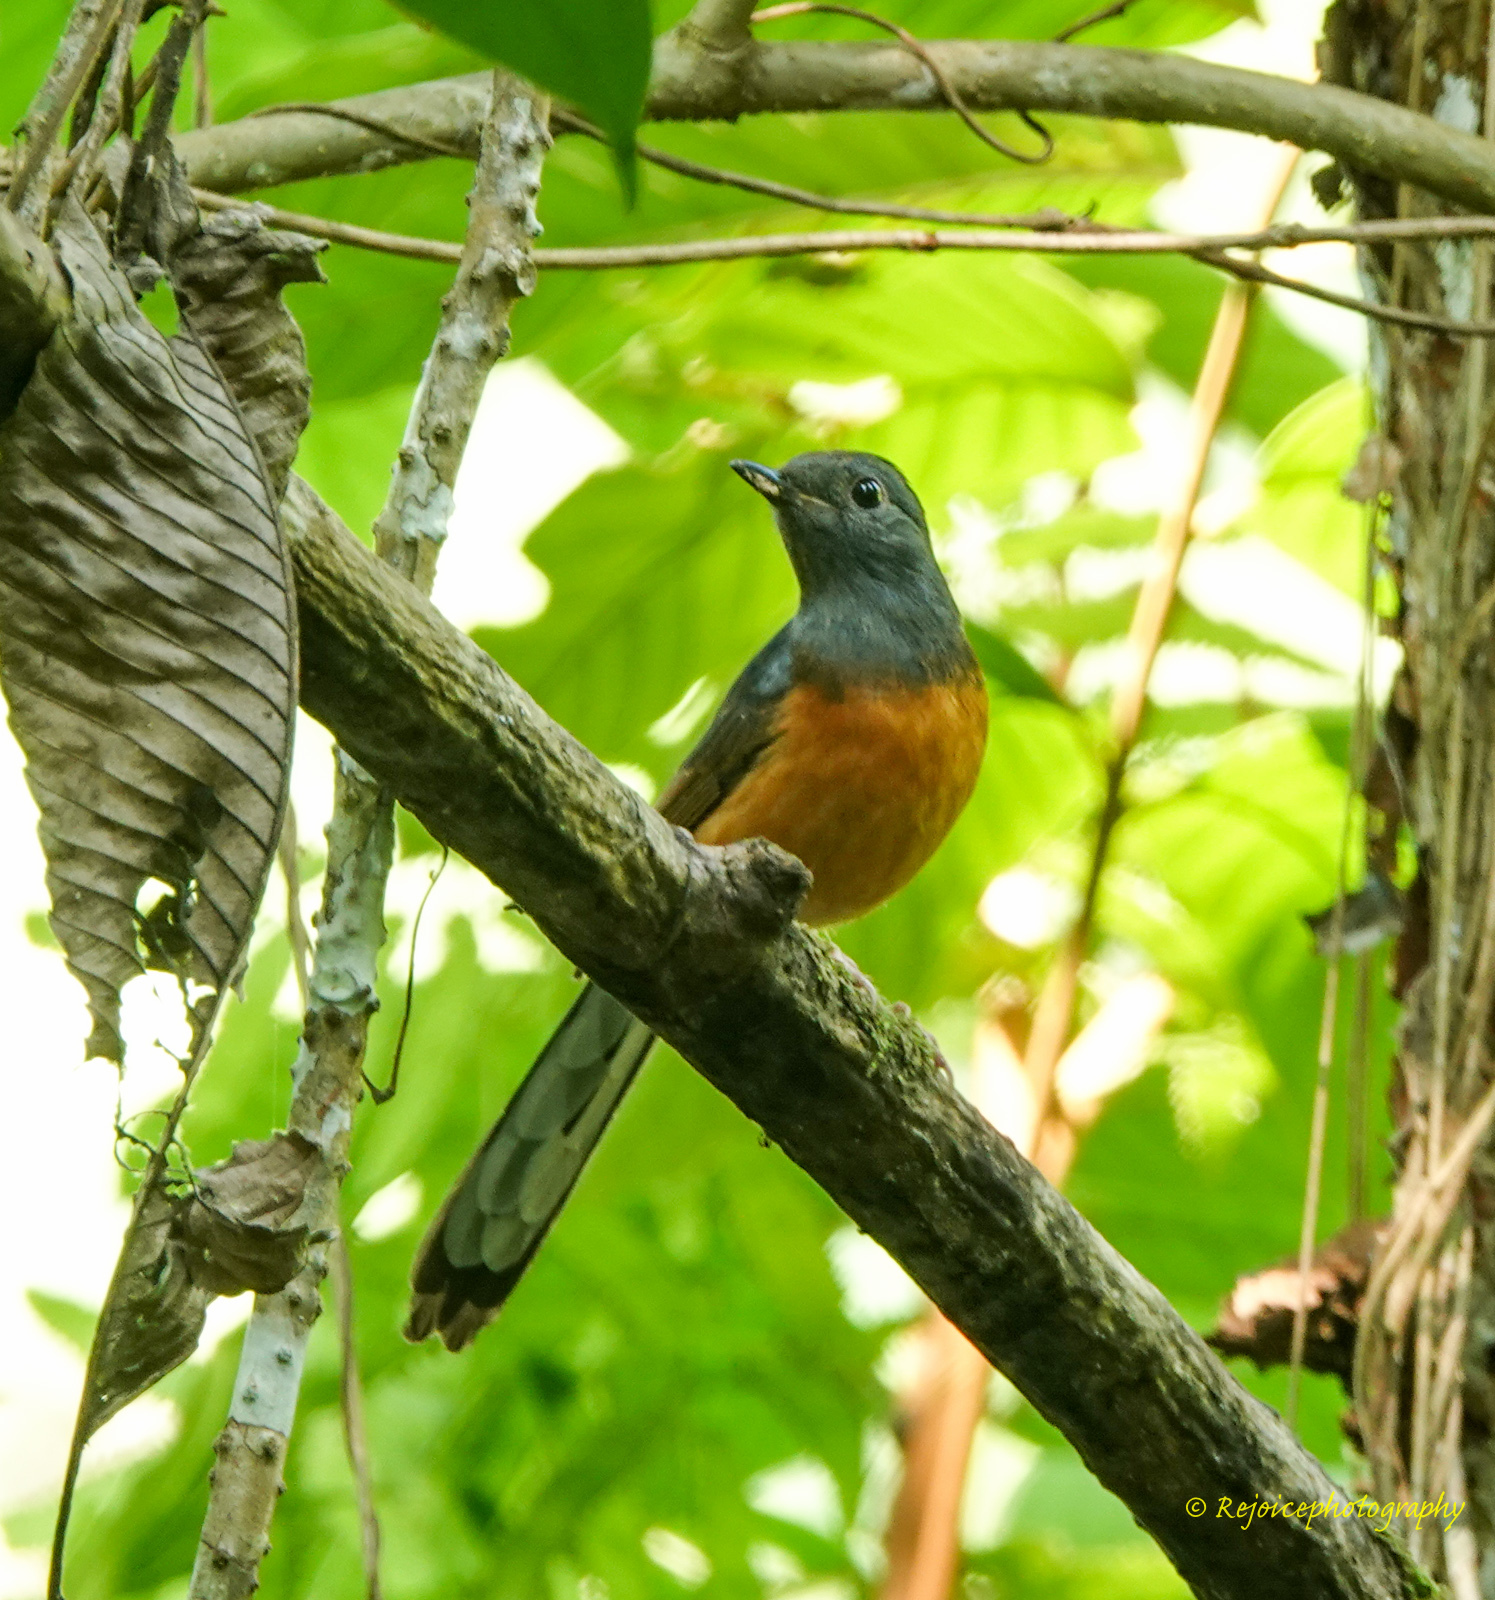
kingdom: Animalia
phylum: Chordata
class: Aves
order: Passeriformes
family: Muscicapidae
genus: Copsychus
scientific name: Copsychus malabaricus
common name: White-rumped shama
